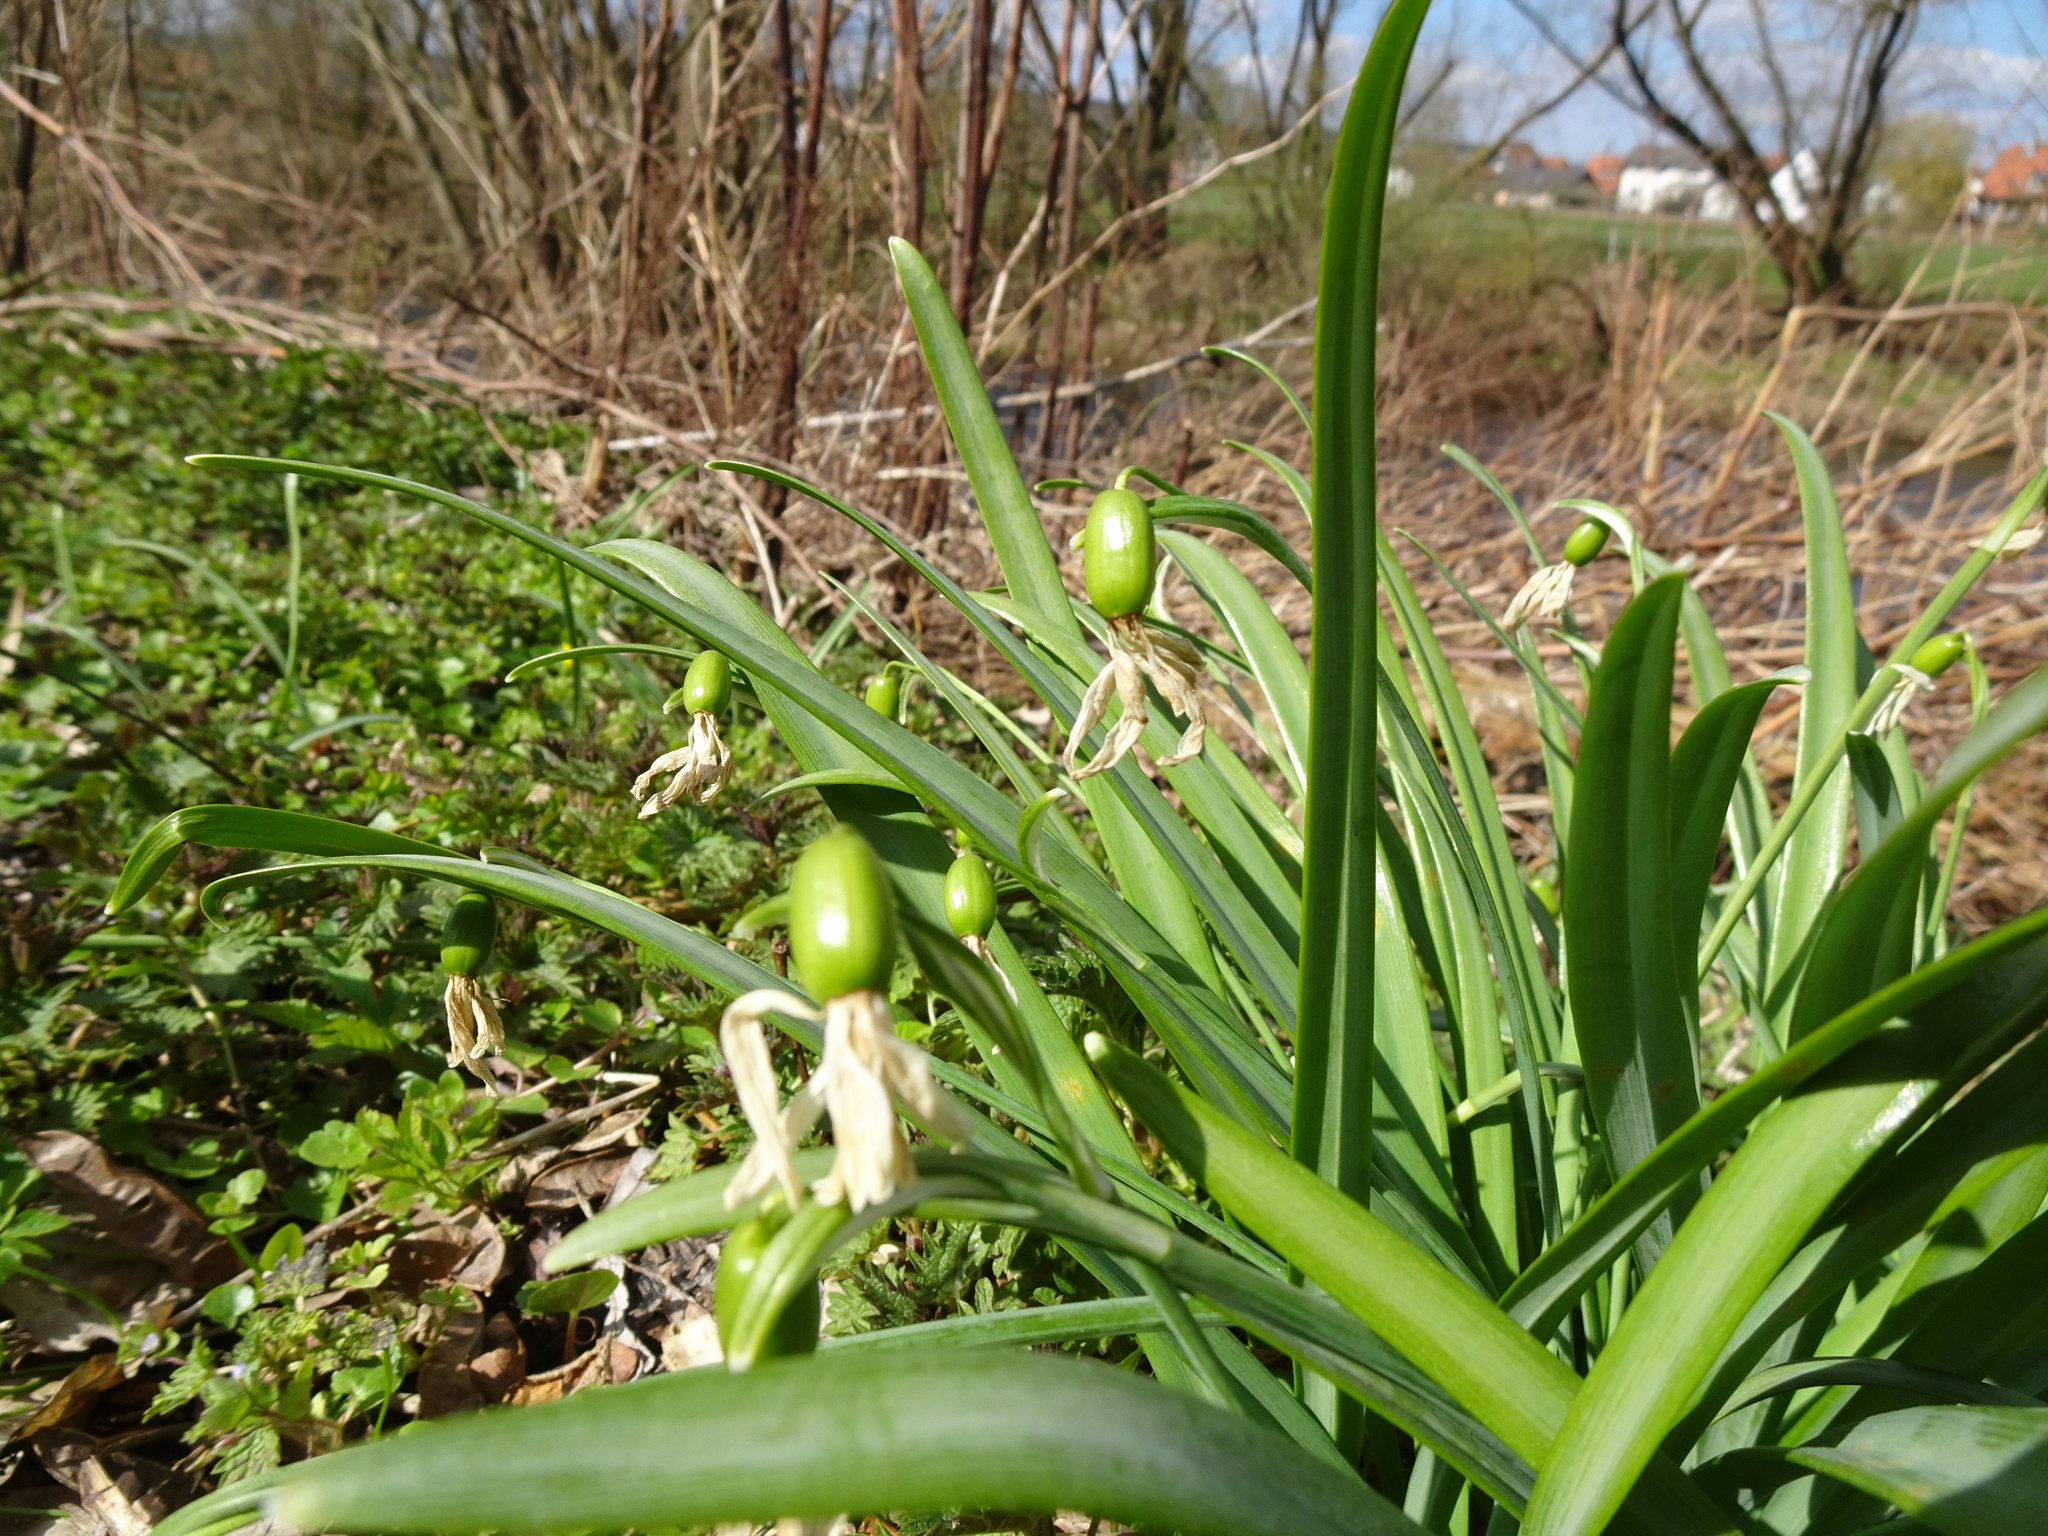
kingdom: Plantae
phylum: Tracheophyta
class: Liliopsida
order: Asparagales
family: Amaryllidaceae
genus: Galanthus
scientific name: Galanthus nivalis
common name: Snowdrop
